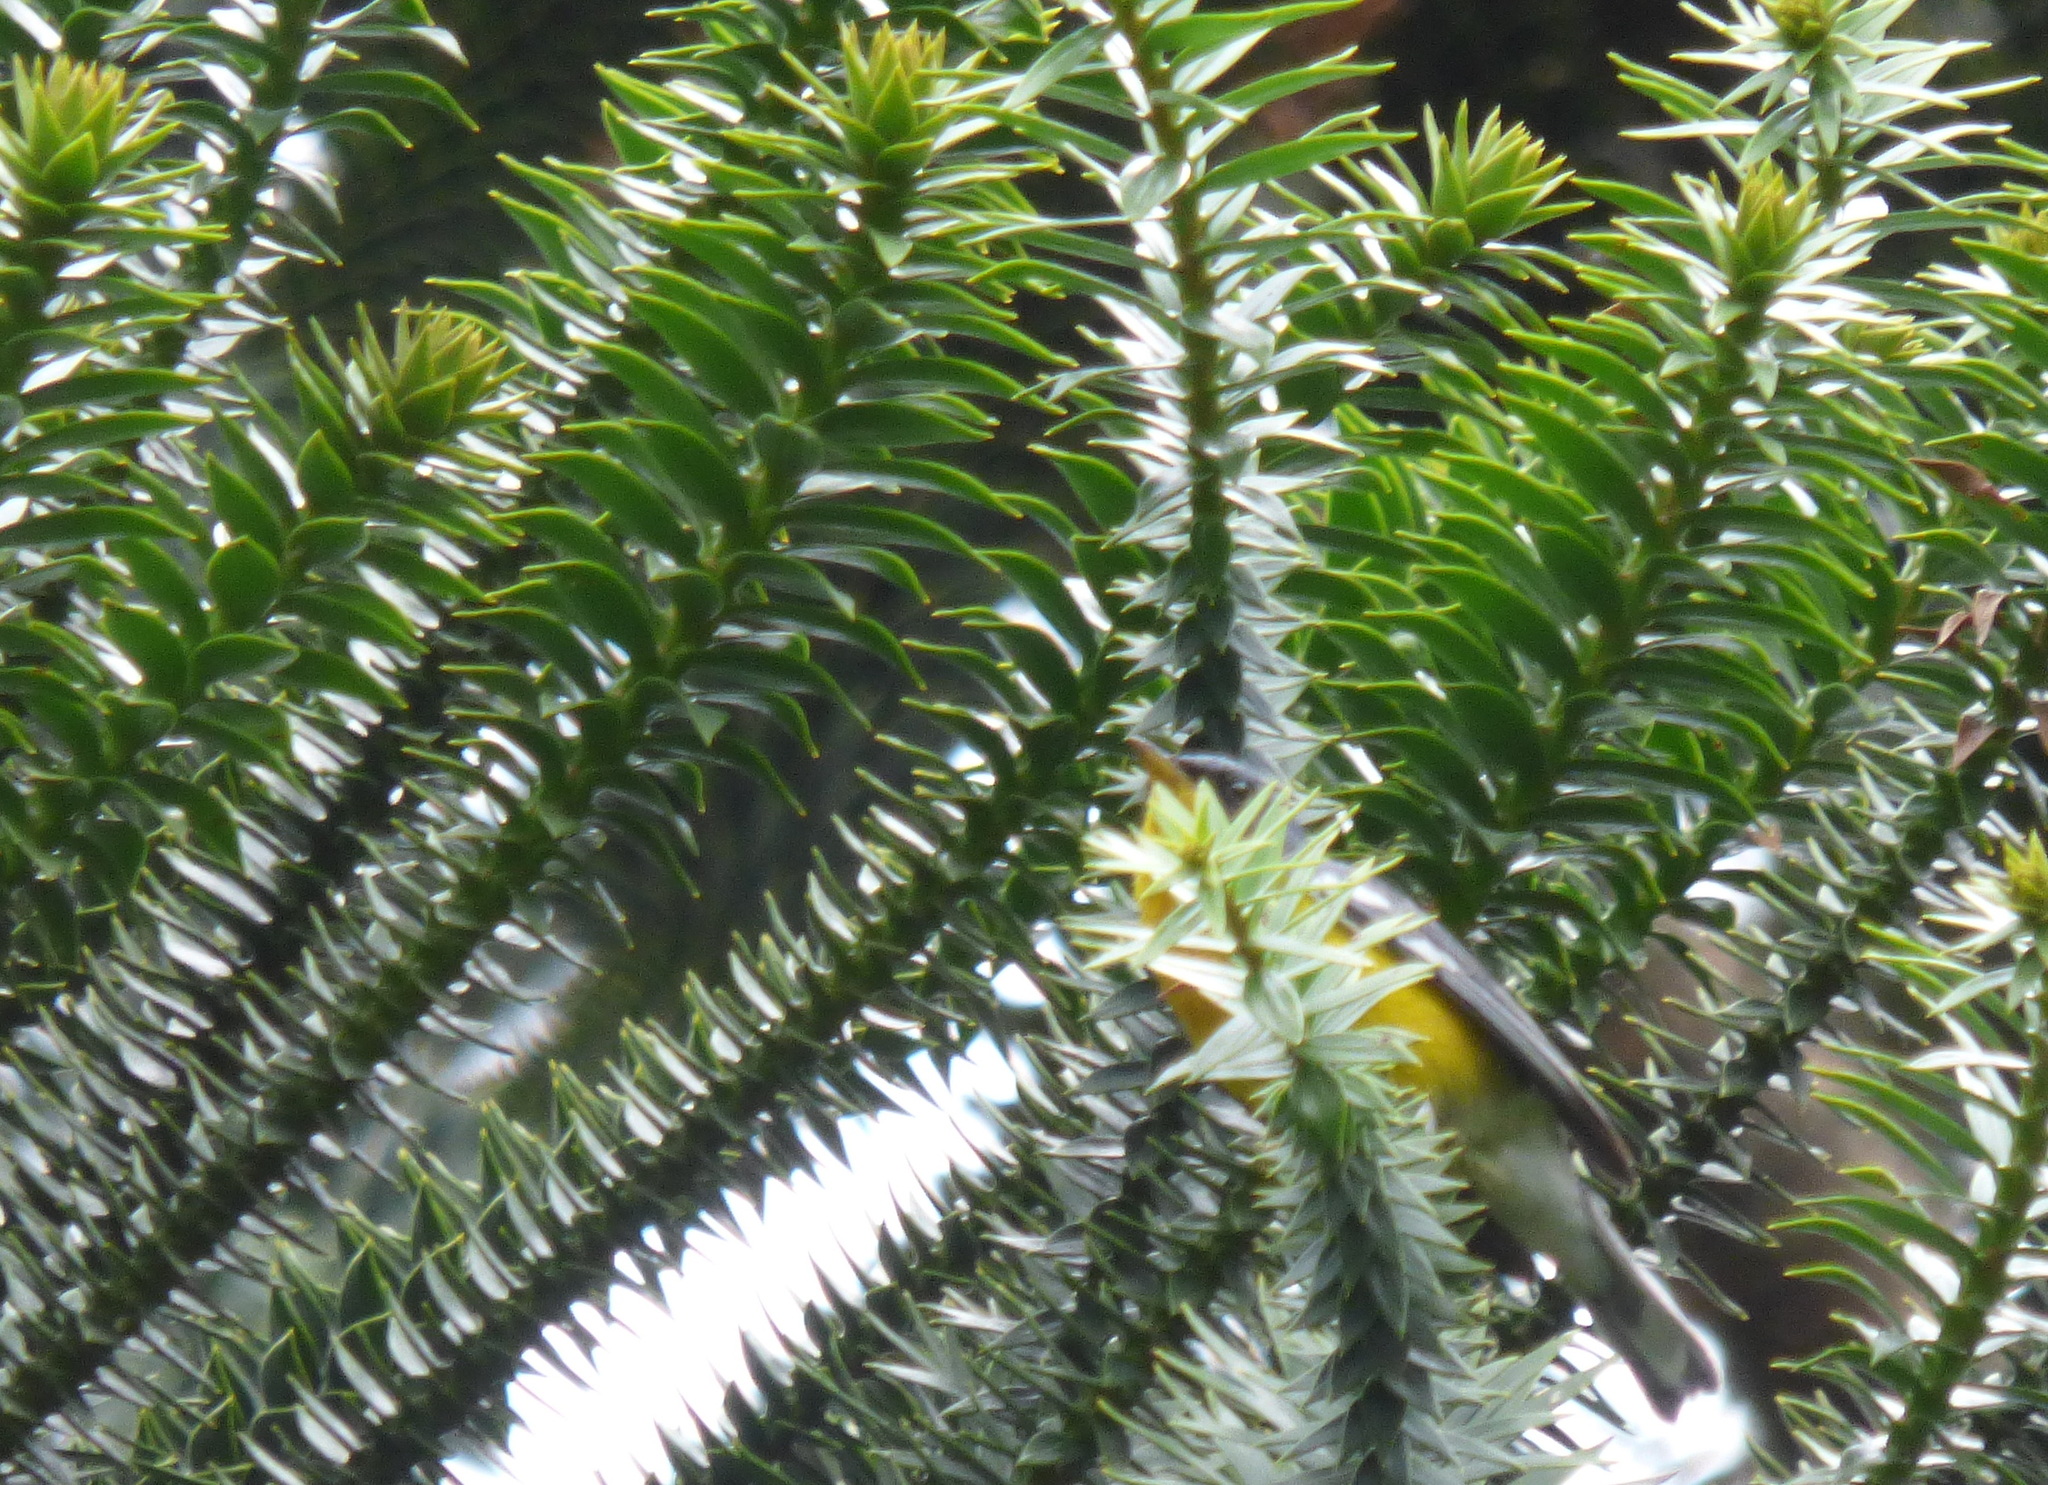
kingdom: Animalia
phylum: Chordata
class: Aves
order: Passeriformes
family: Parulidae
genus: Setophaga
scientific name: Setophaga pitiayumi
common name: Tropical parula
